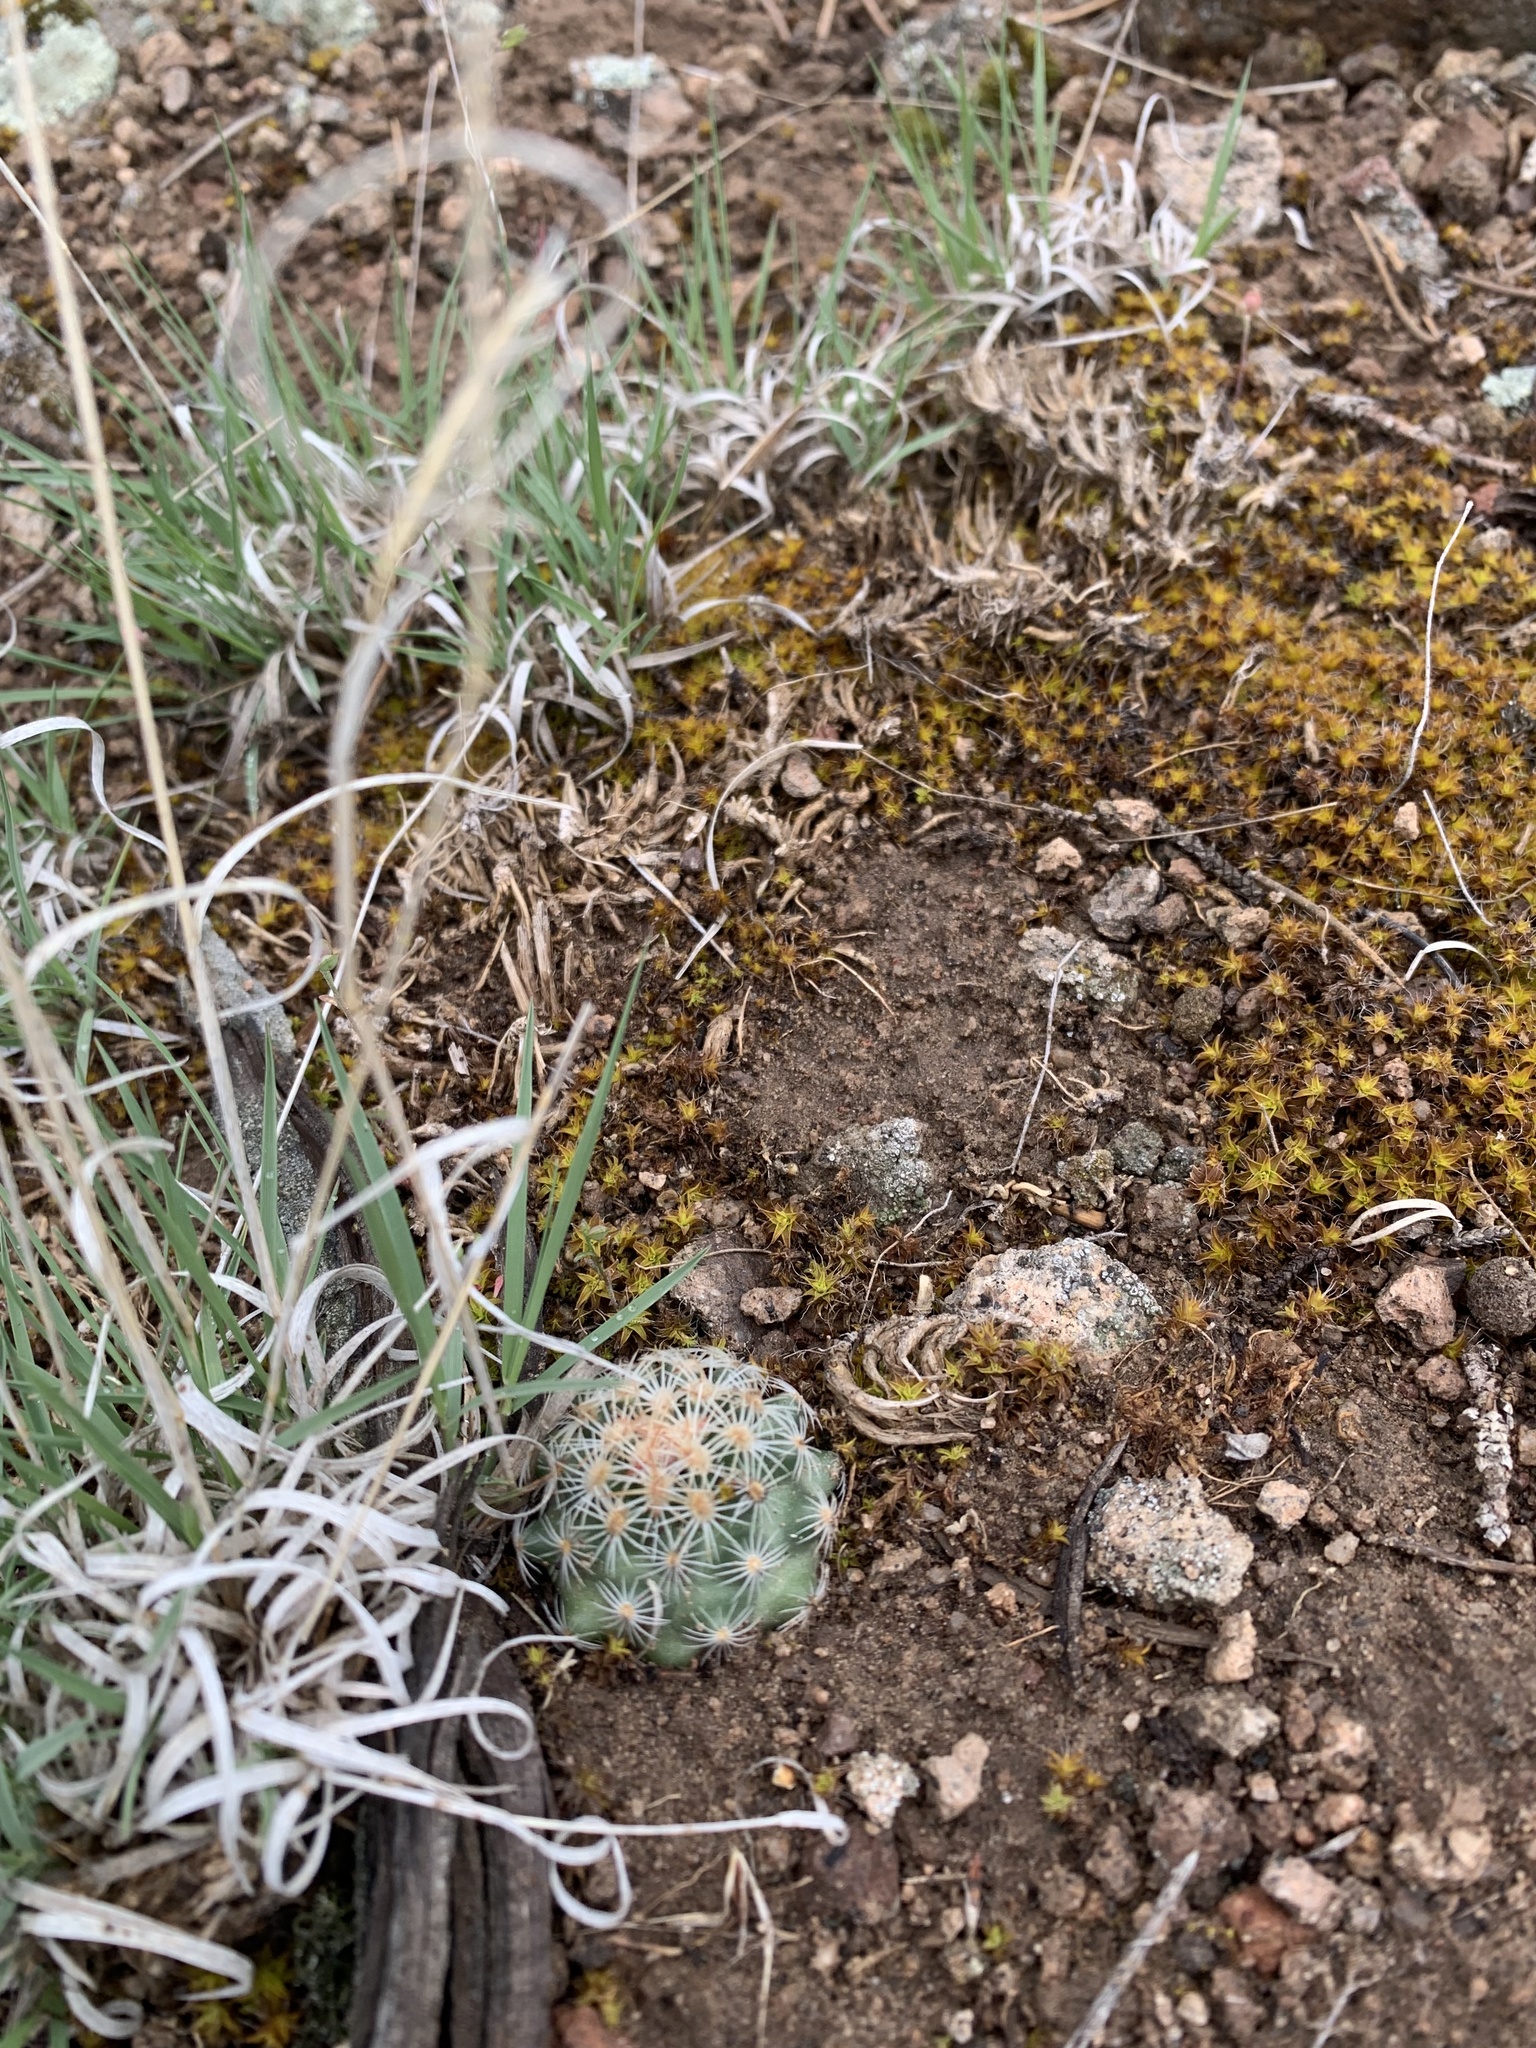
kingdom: Plantae
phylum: Tracheophyta
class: Magnoliopsida
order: Caryophyllales
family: Cactaceae
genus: Pediocactus
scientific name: Pediocactus simpsonii
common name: Simpson's hedgehog cactus
